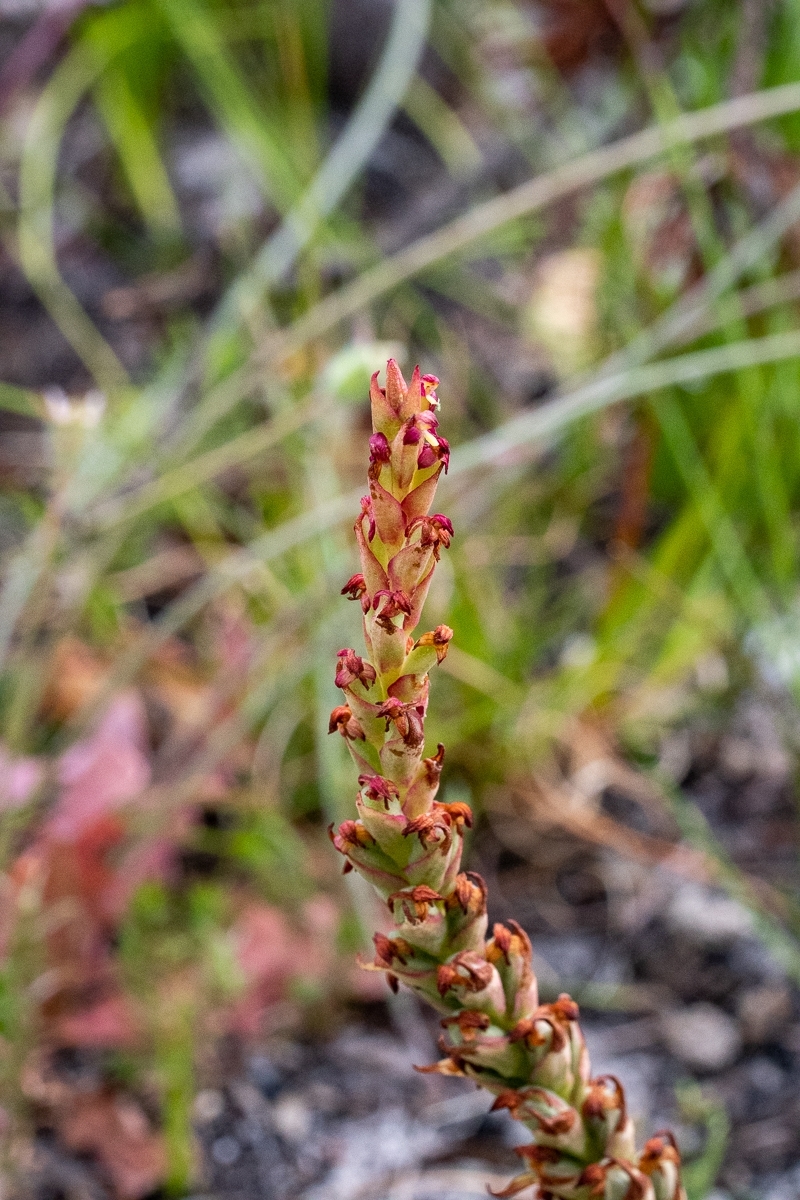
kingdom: Plantae
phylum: Tracheophyta
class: Liliopsida
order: Asparagales
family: Orchidaceae
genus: Disa
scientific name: Disa bracteata
